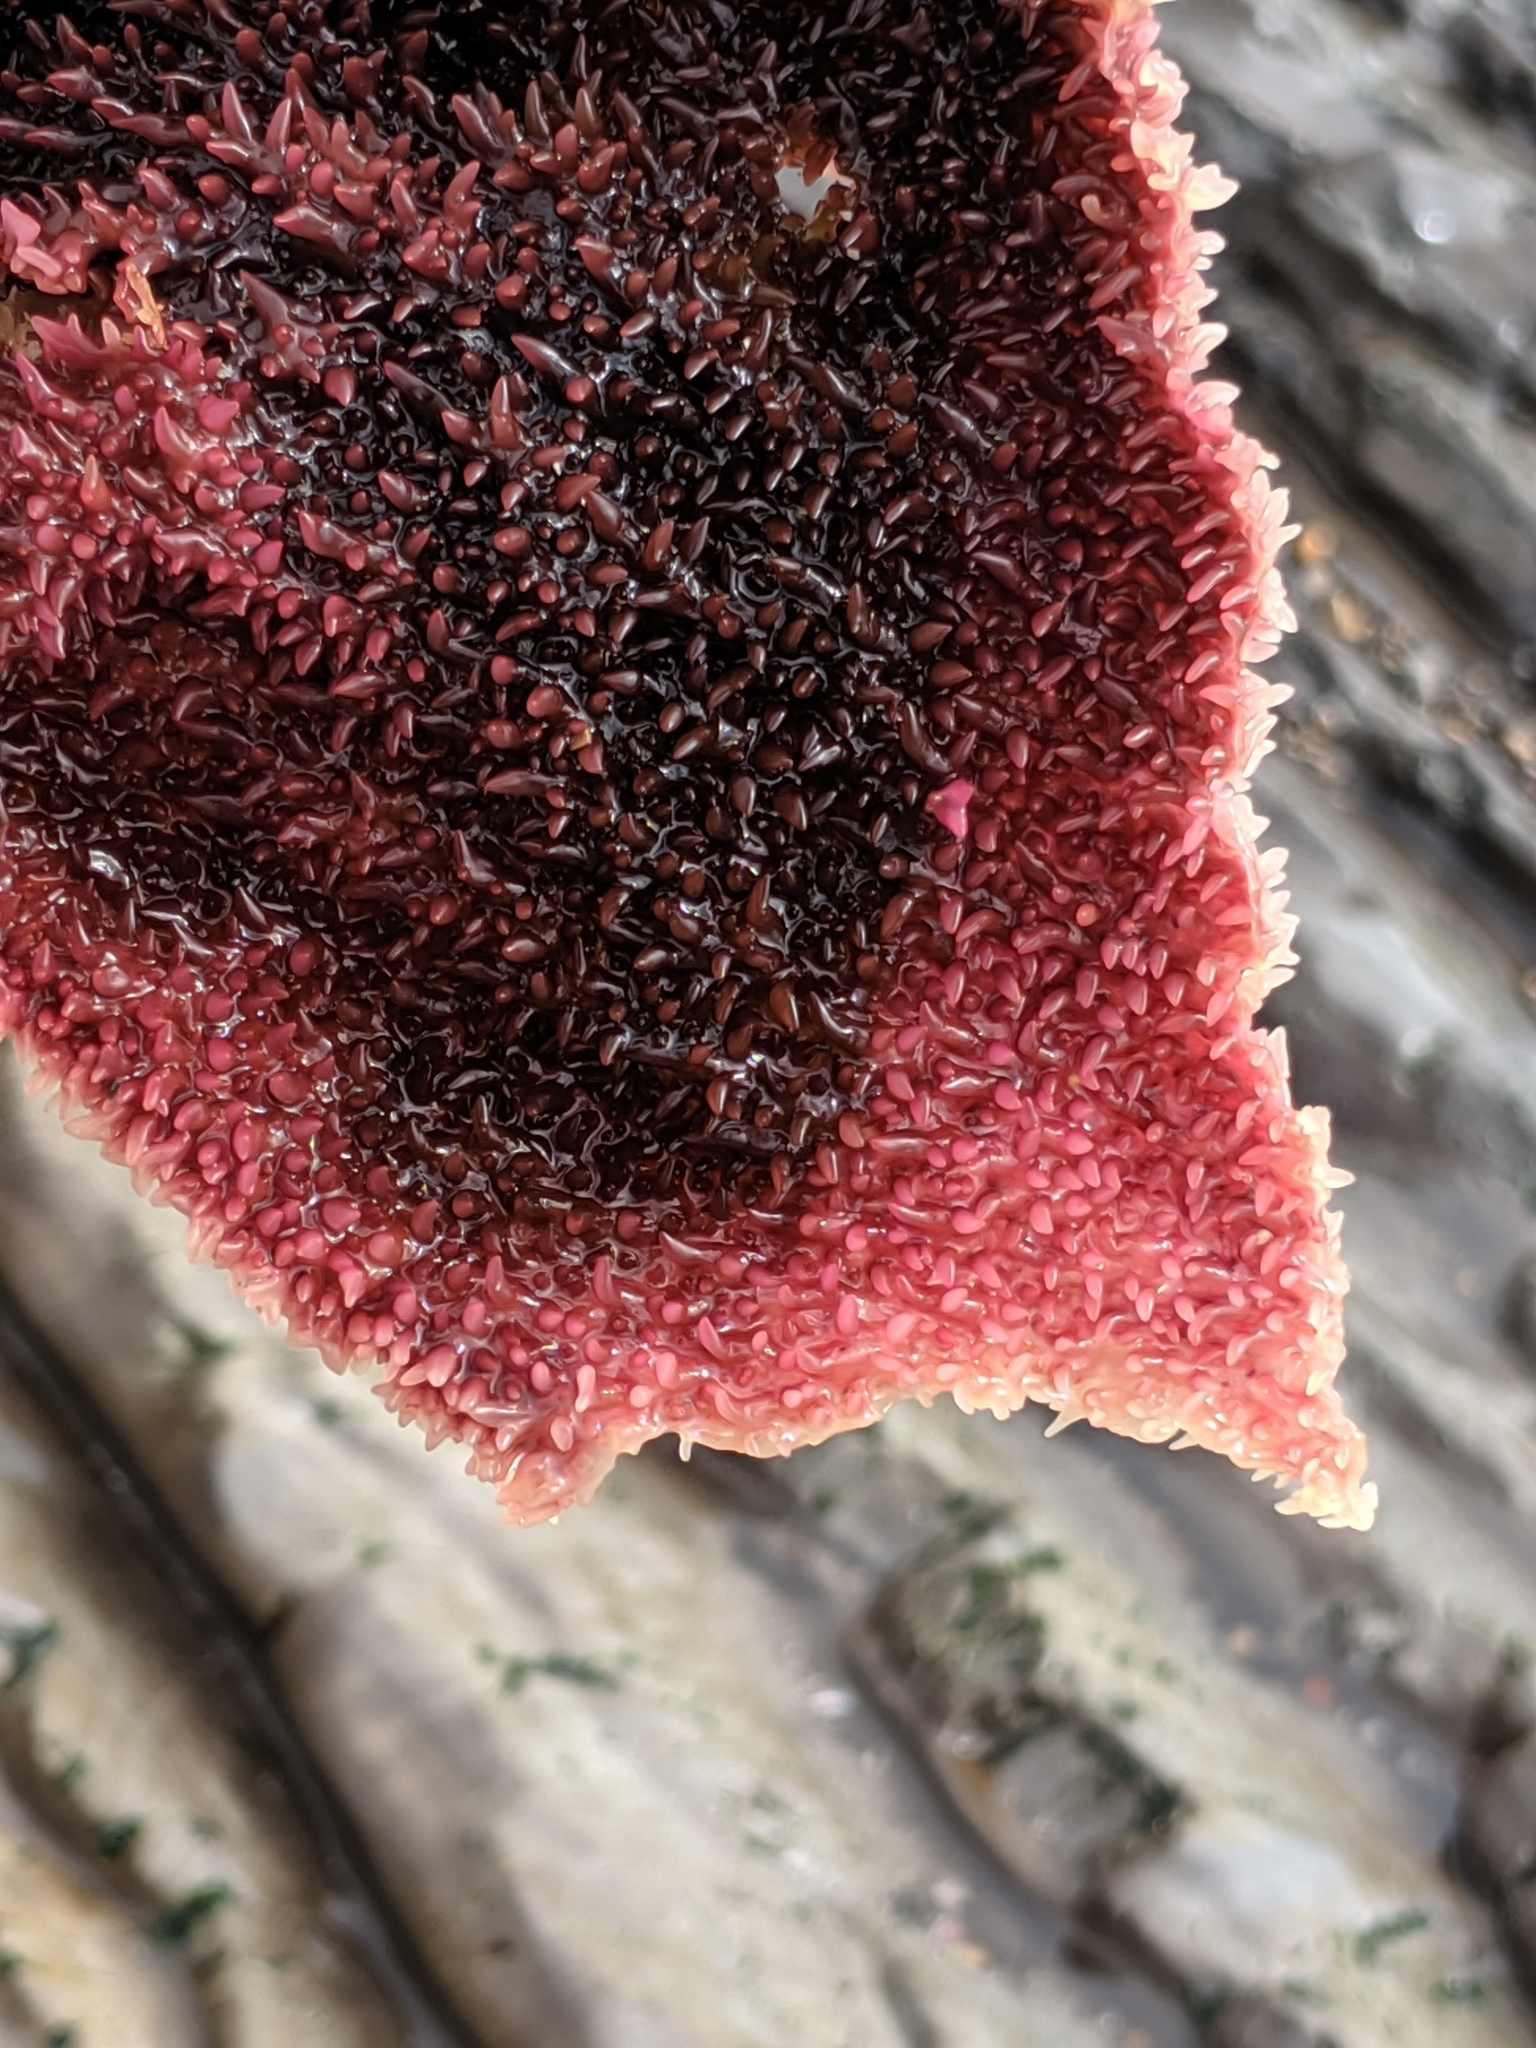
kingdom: Plantae
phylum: Rhodophyta
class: Florideophyceae
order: Gigartinales
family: Gigartinaceae
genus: Chondracanthus
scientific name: Chondracanthus exasperatus
